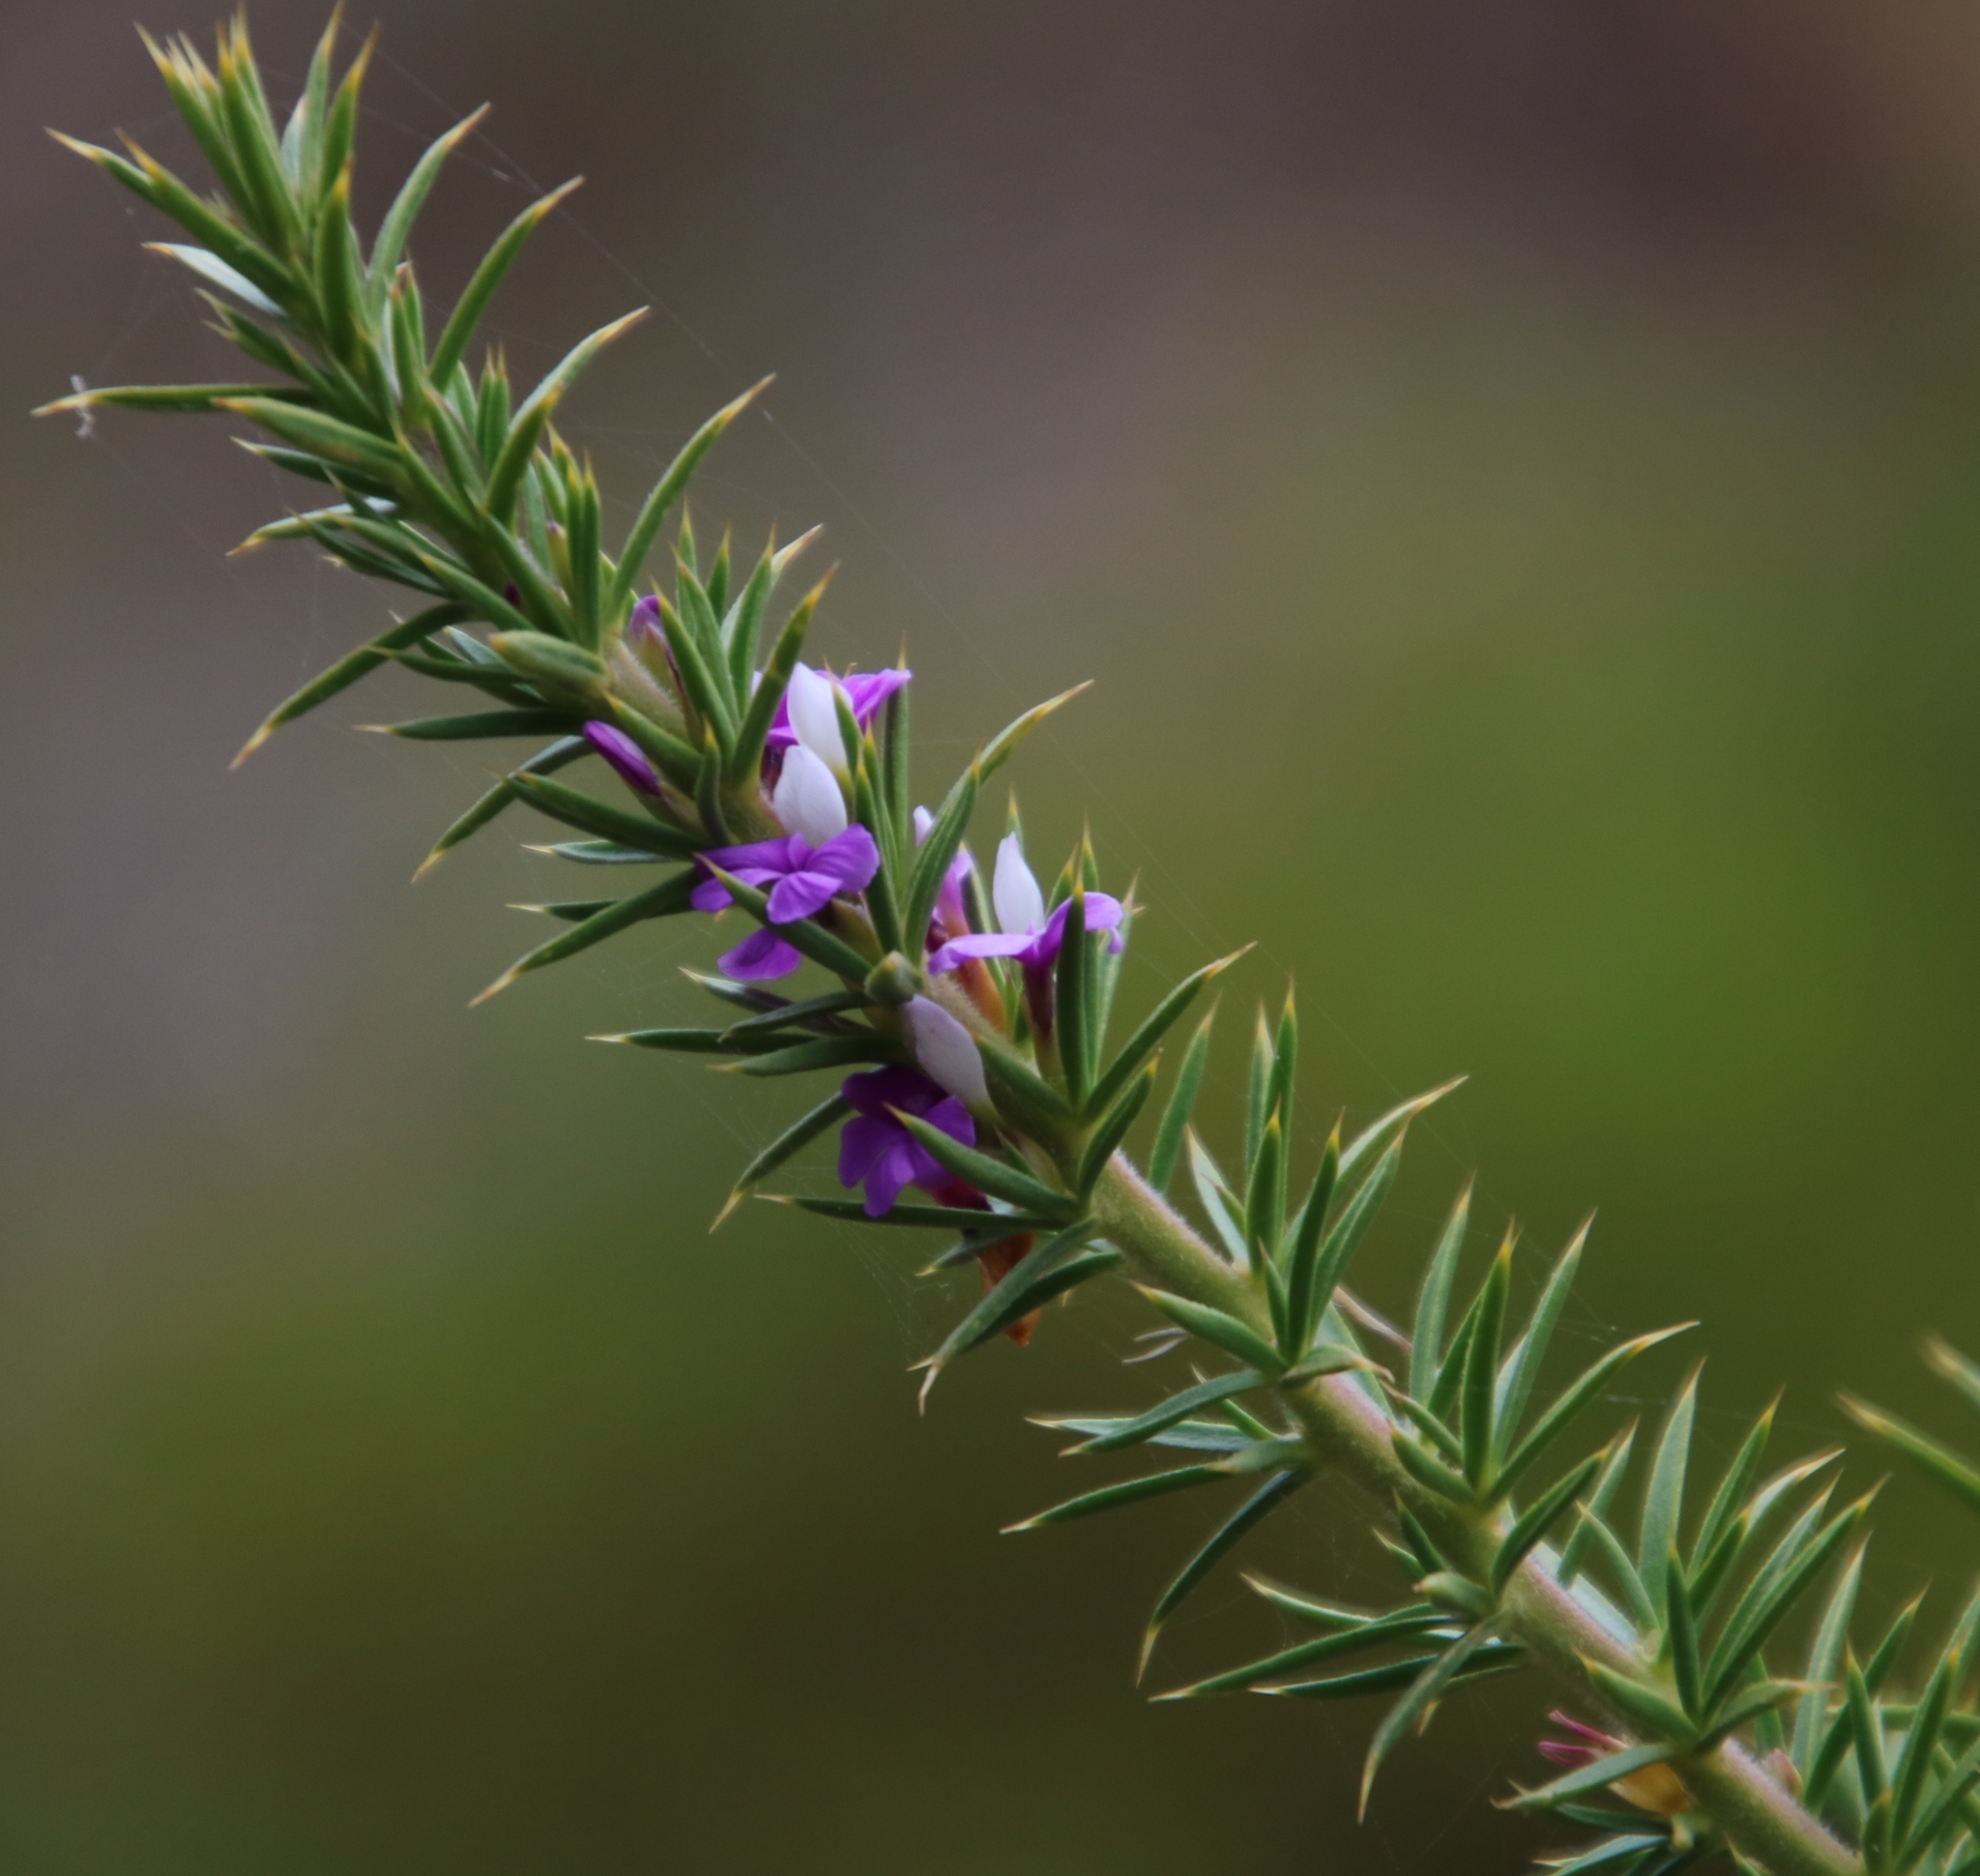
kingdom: Plantae
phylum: Tracheophyta
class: Magnoliopsida
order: Fabales
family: Polygalaceae
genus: Muraltia
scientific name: Muraltia heisteria
